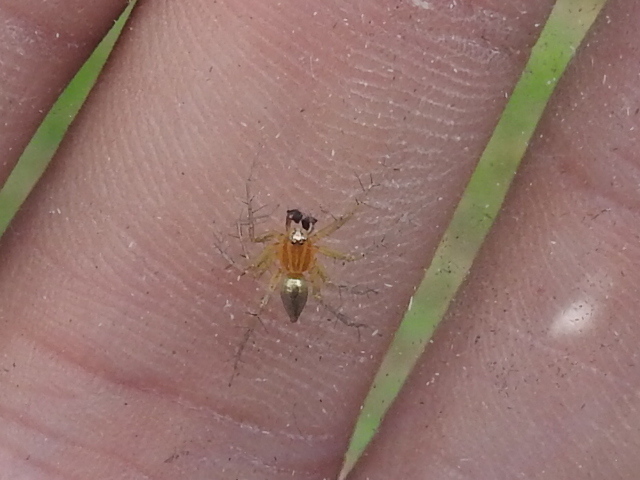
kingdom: Animalia
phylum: Arthropoda
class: Arachnida
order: Araneae
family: Oxyopidae
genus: Oxyopes
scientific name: Oxyopes salticus
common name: Lynx spiders
